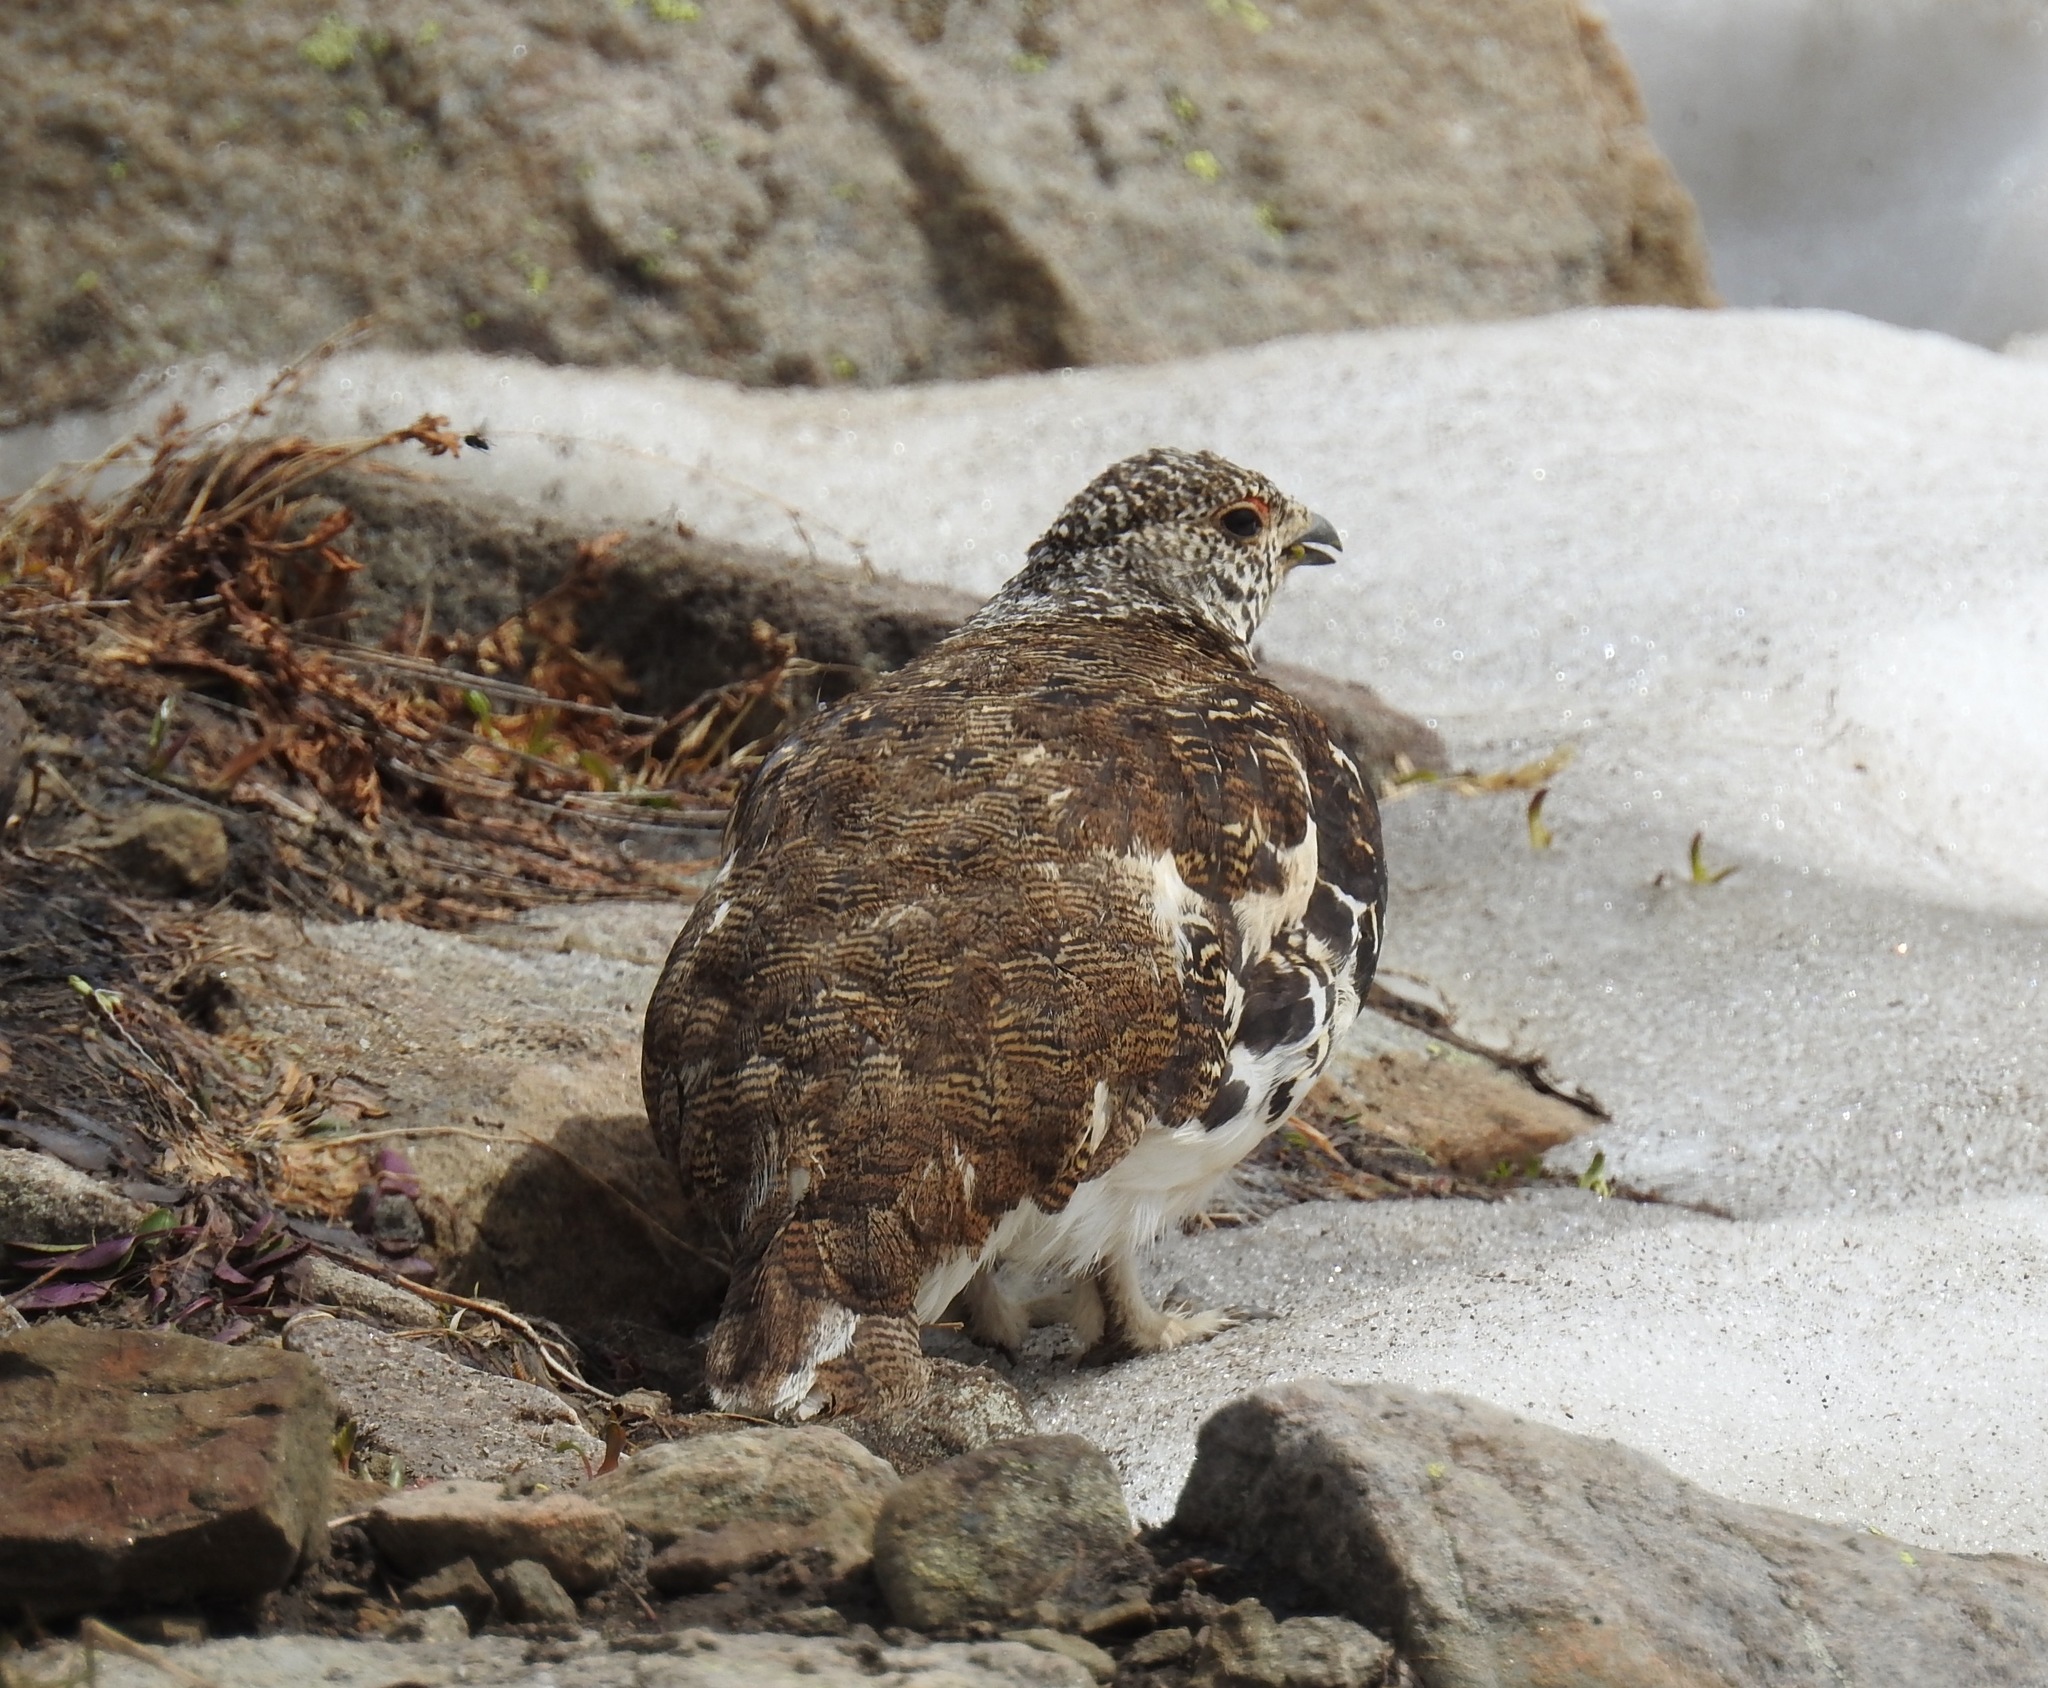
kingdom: Animalia
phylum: Chordata
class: Aves
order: Galliformes
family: Phasianidae
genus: Lagopus
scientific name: Lagopus leucura
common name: White-tailed ptarmigan
